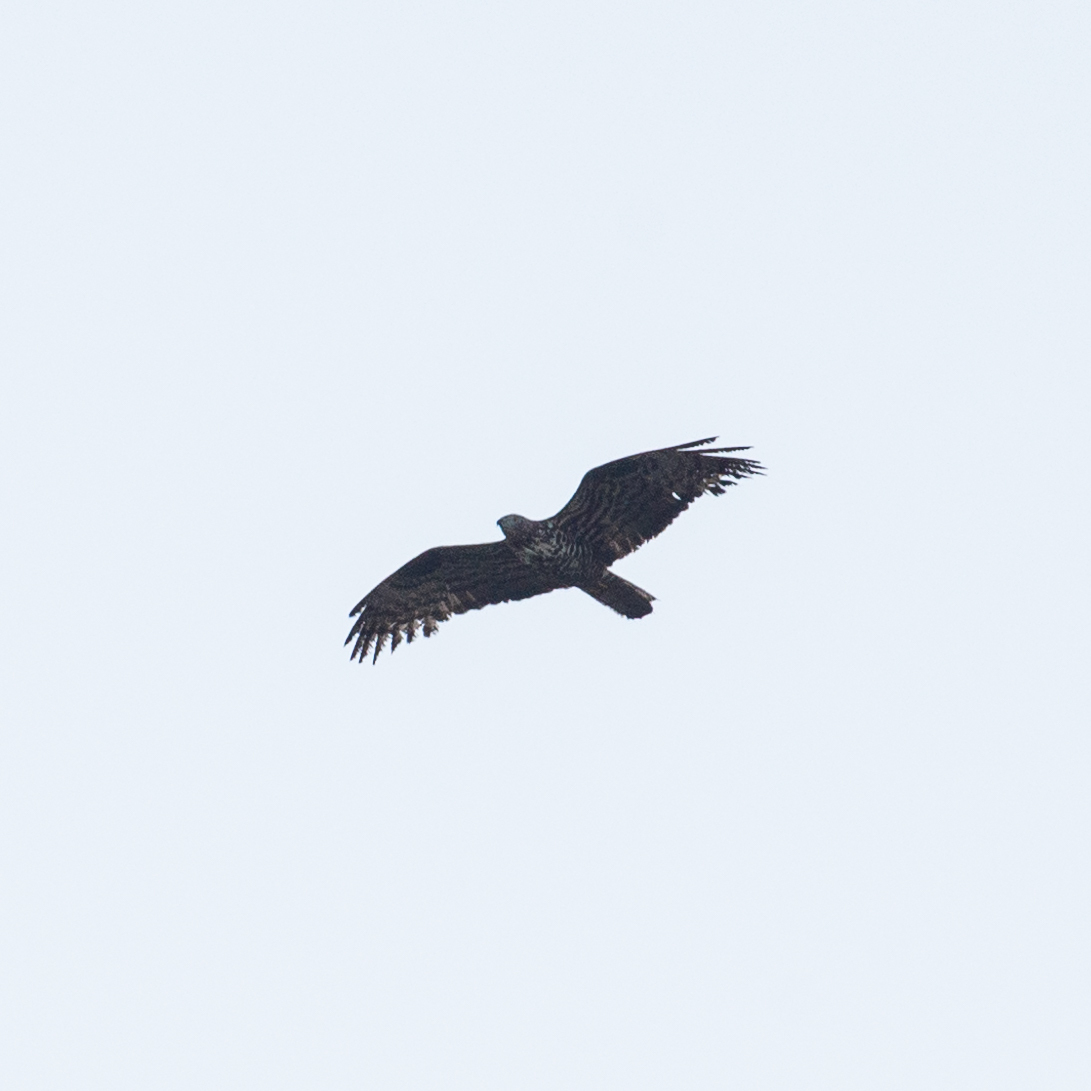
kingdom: Animalia
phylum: Chordata
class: Aves
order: Accipitriformes
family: Accipitridae
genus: Pernis
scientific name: Pernis apivorus
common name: European honey buzzard
